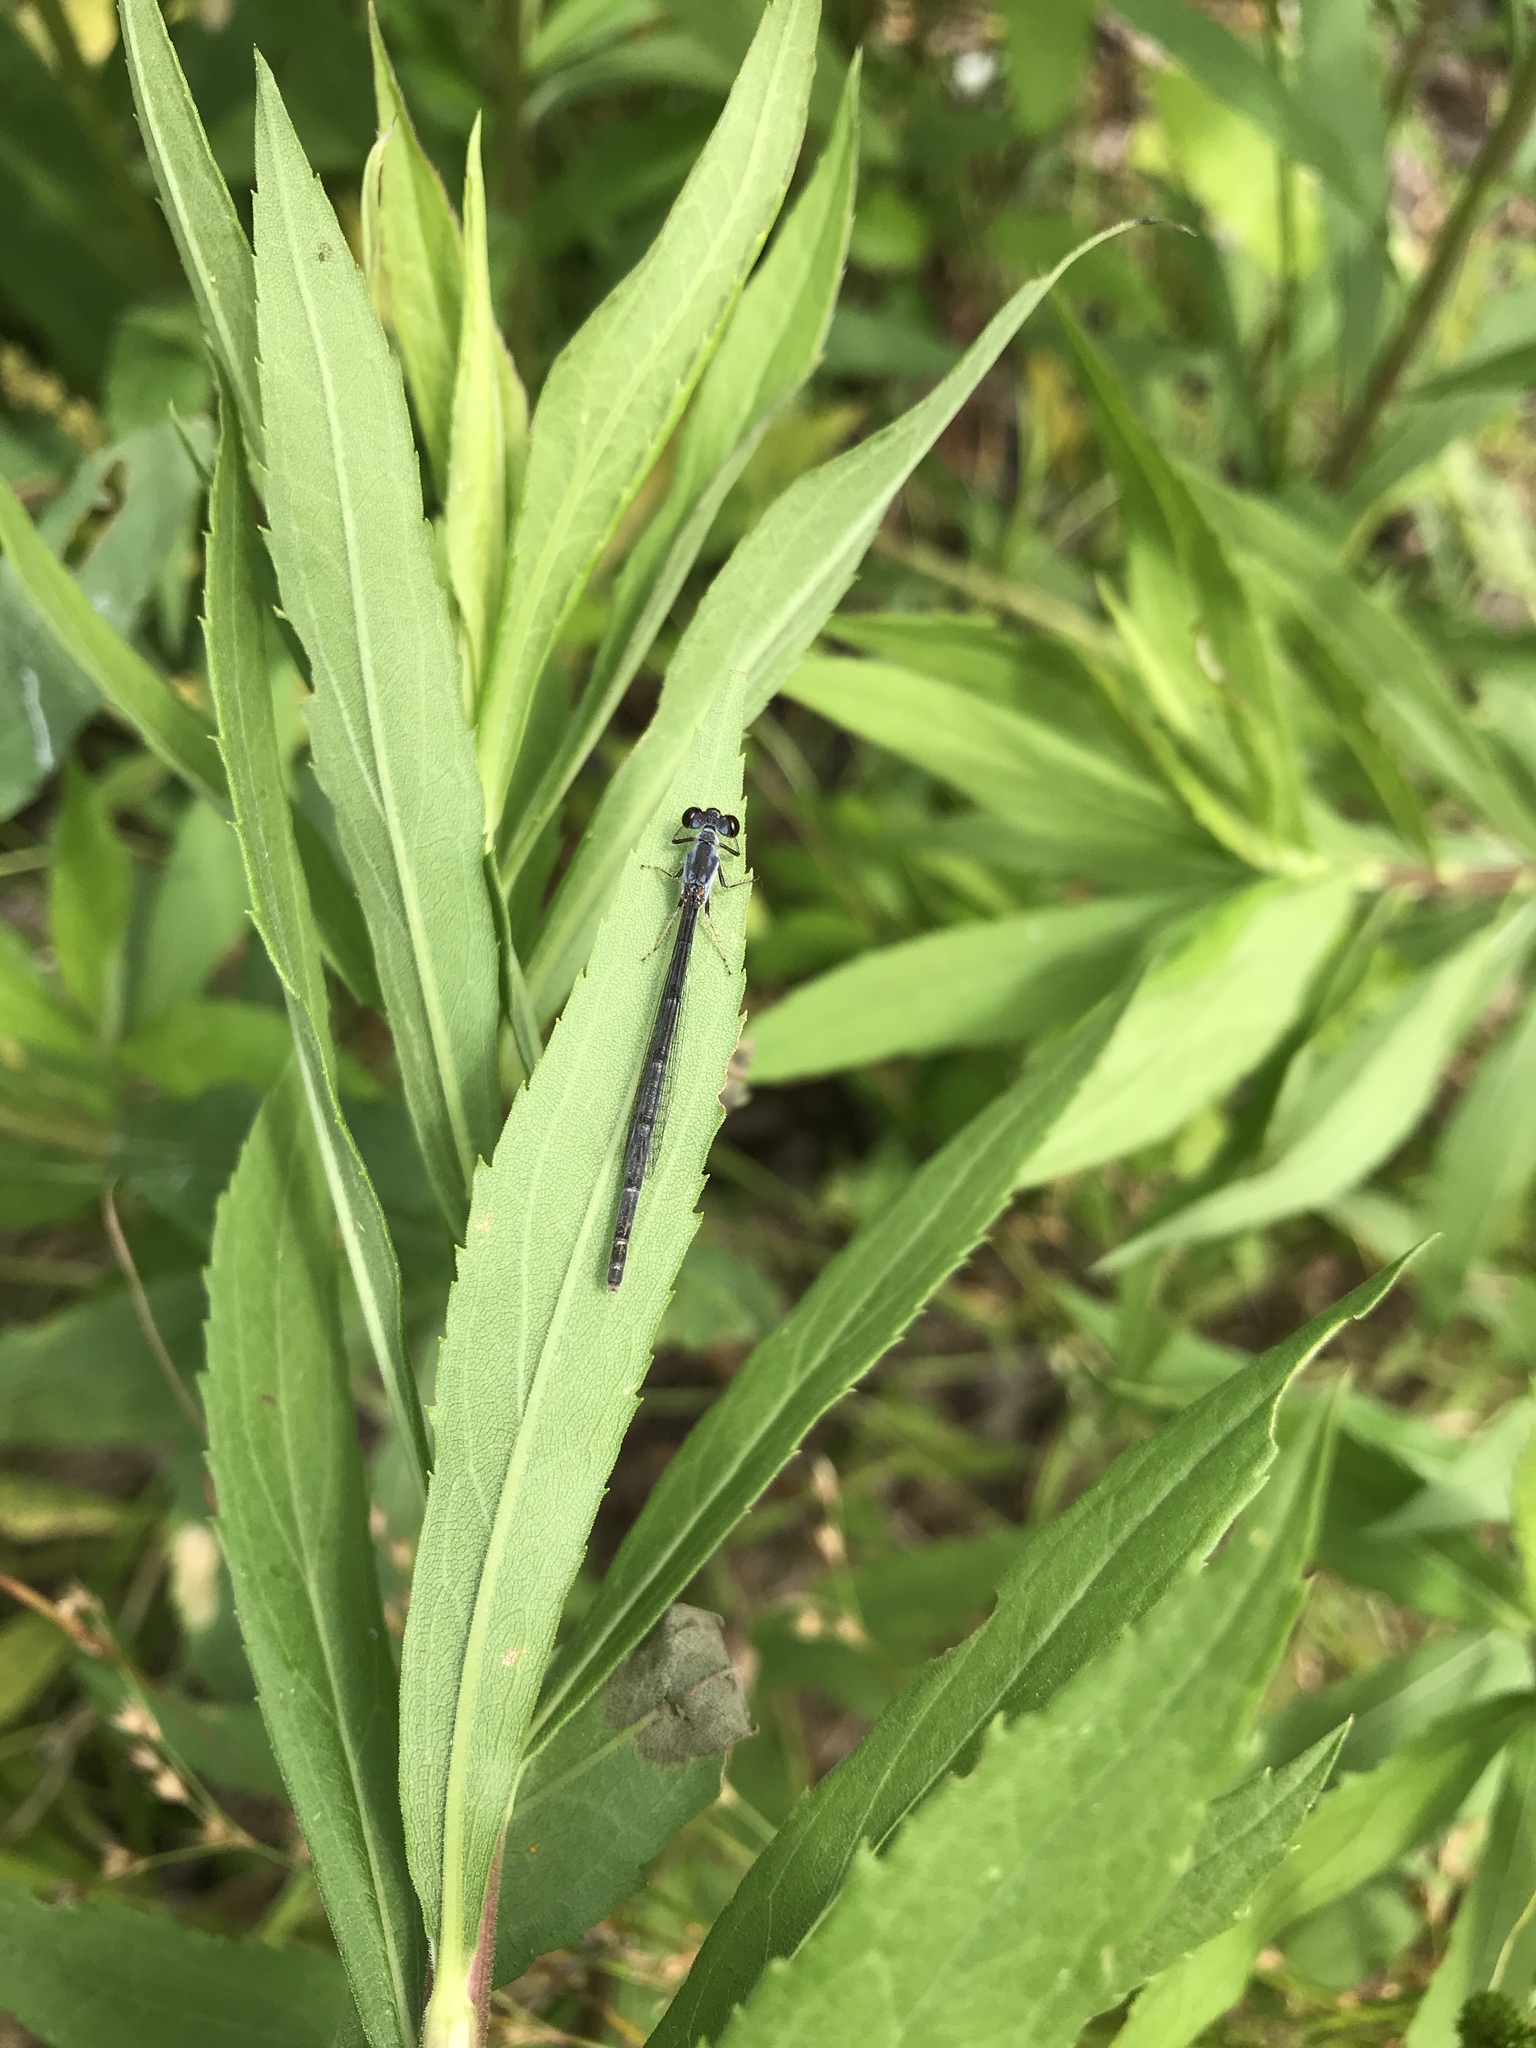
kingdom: Animalia
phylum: Arthropoda
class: Insecta
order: Odonata
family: Coenagrionidae
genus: Ischnura
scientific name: Ischnura posita
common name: Fragile forktail
